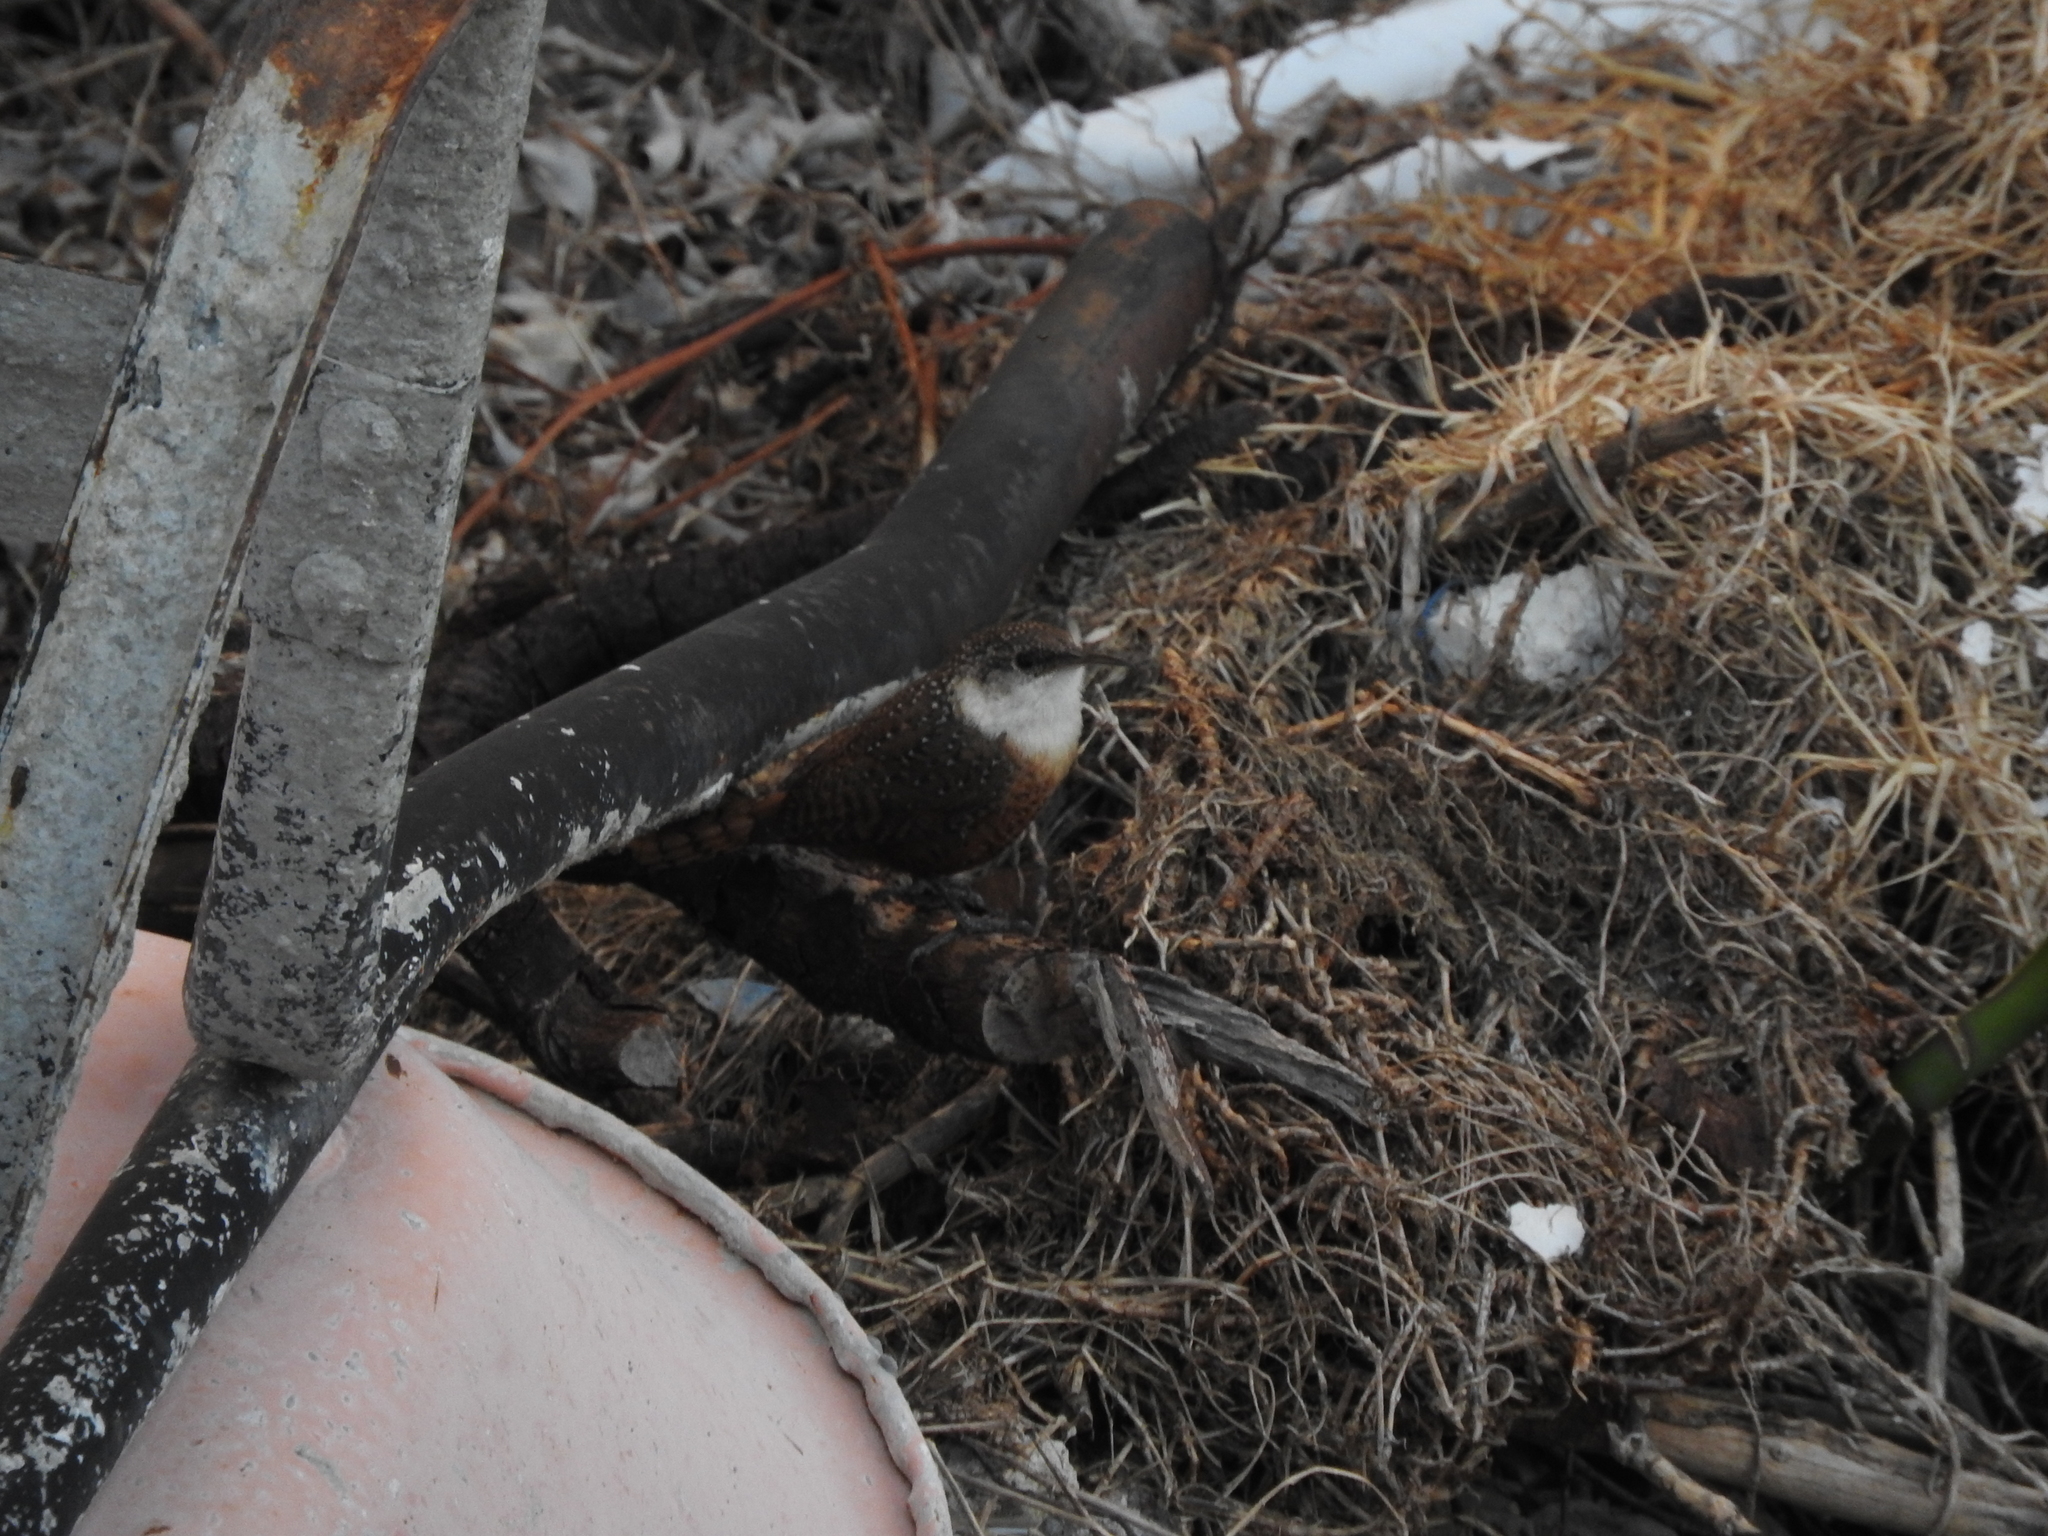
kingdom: Animalia
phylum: Chordata
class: Aves
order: Passeriformes
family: Troglodytidae
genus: Catherpes
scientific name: Catherpes mexicanus
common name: Canyon wren
